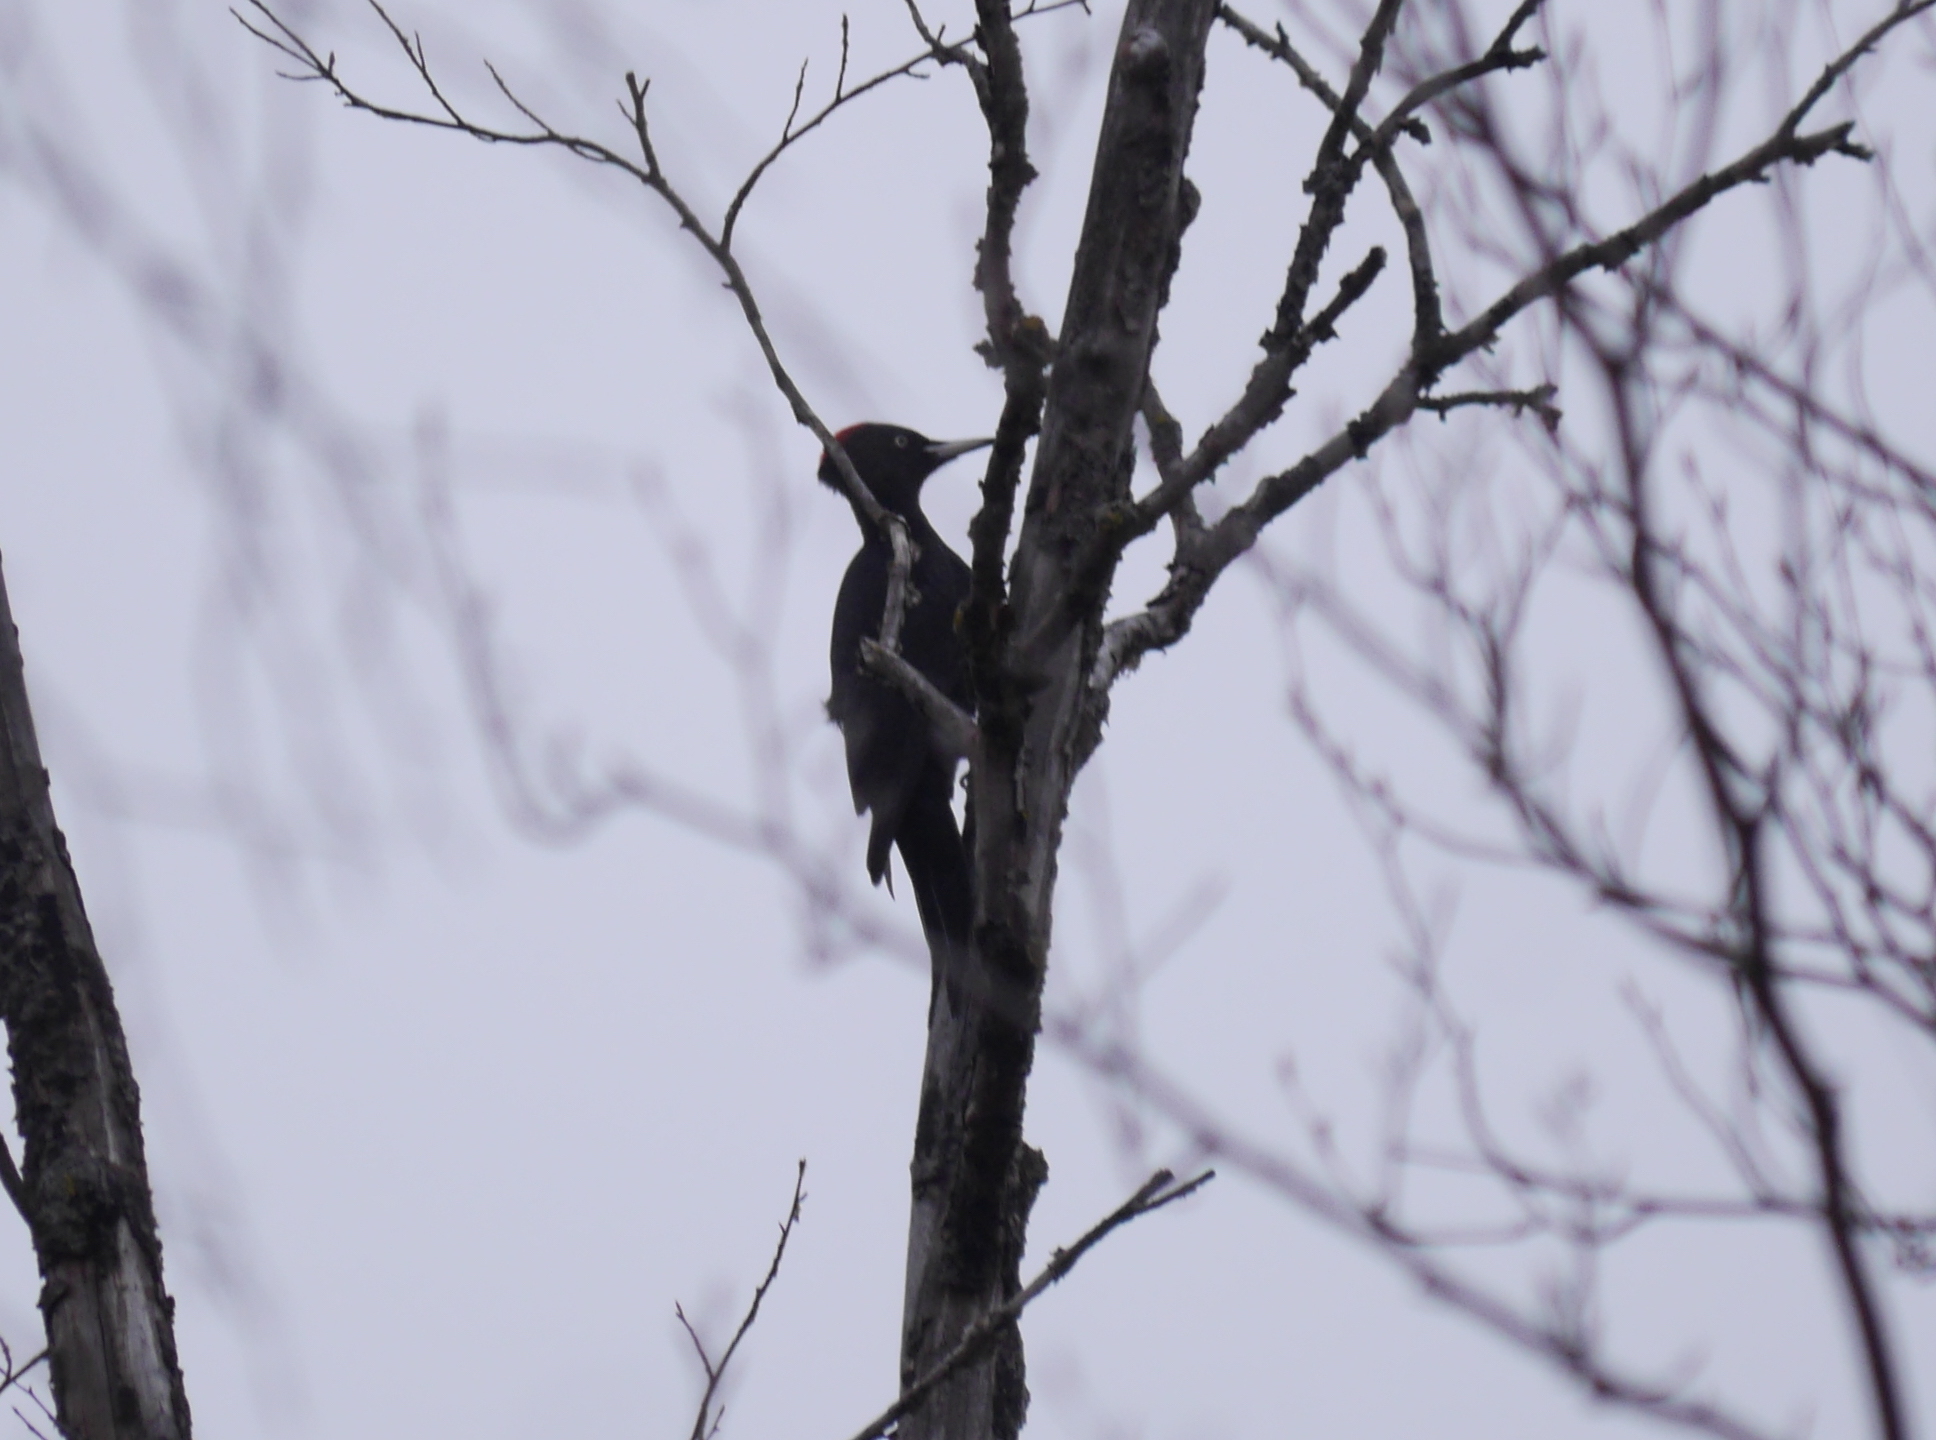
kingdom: Animalia
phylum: Chordata
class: Aves
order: Piciformes
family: Picidae
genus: Dryocopus
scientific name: Dryocopus martius
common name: Black woodpecker
